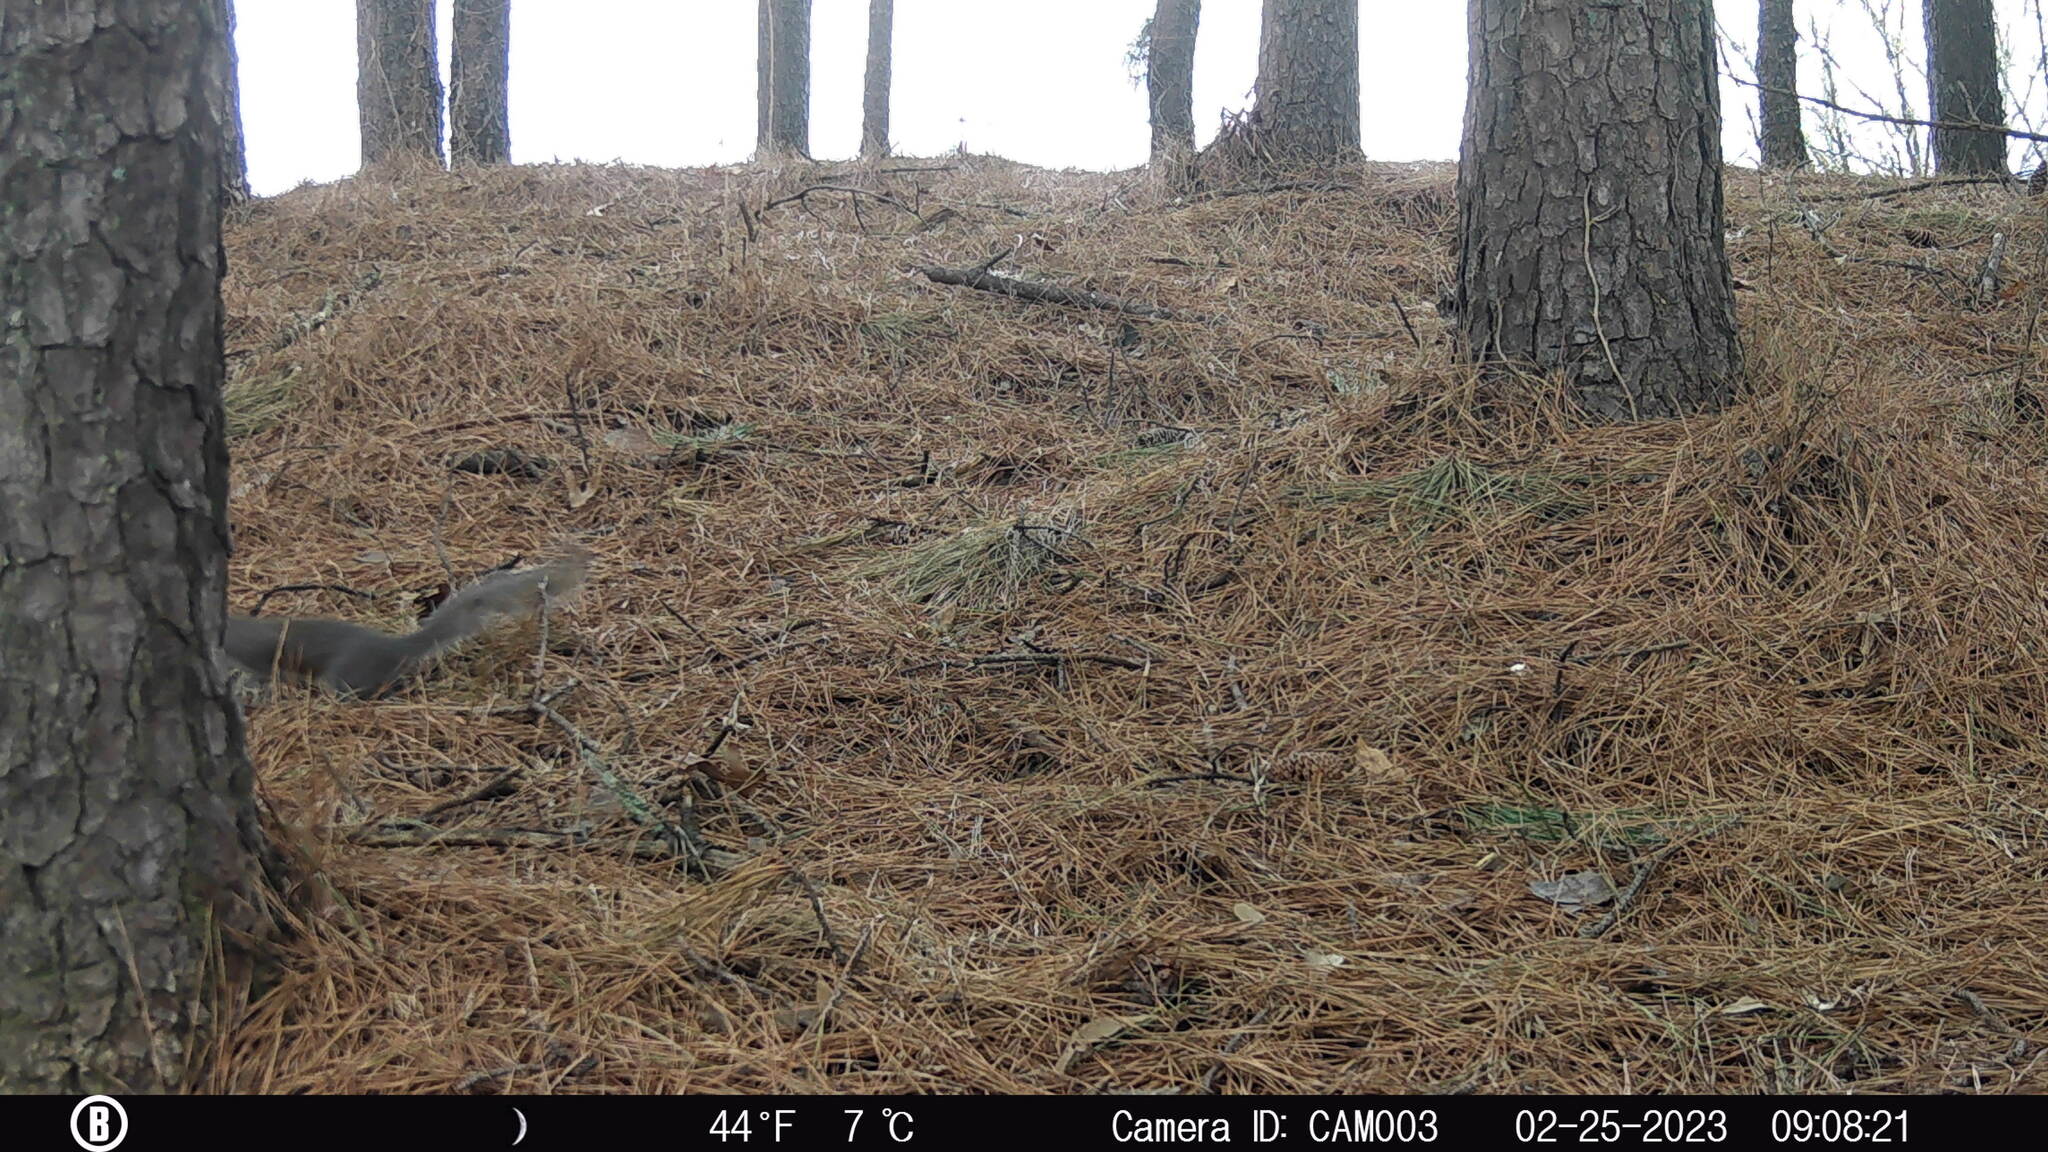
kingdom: Animalia
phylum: Chordata
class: Mammalia
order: Rodentia
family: Sciuridae
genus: Sciurus
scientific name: Sciurus carolinensis
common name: Eastern gray squirrel
